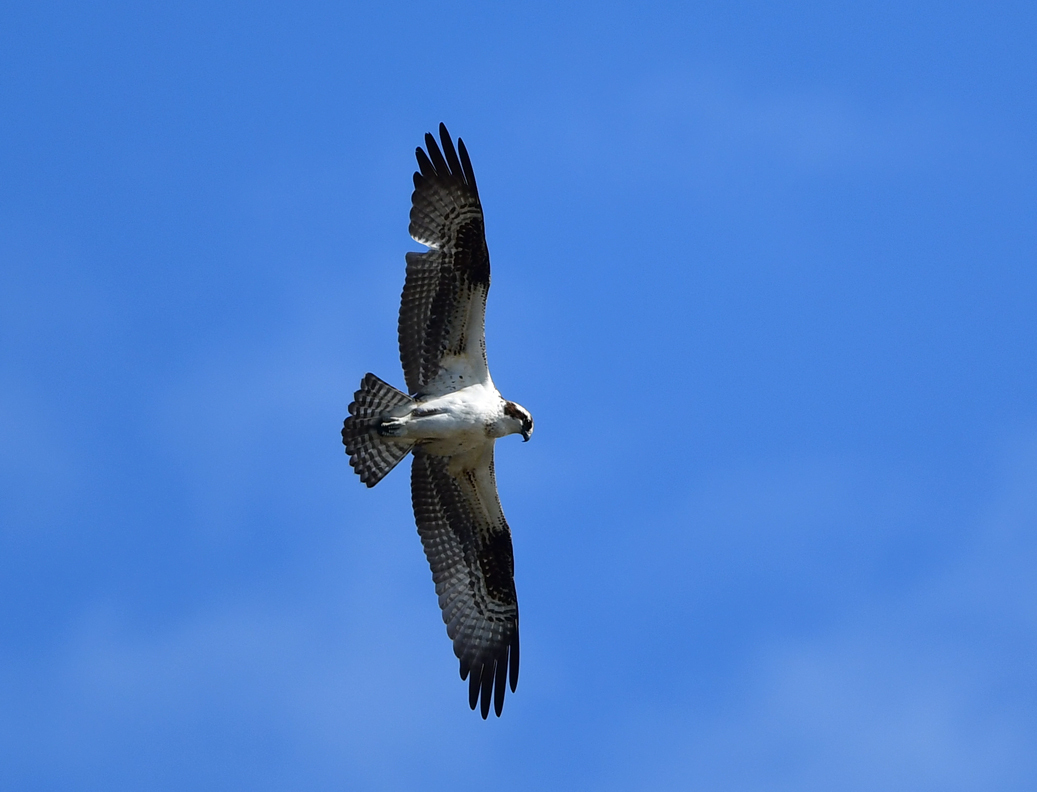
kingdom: Animalia
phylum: Chordata
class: Aves
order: Accipitriformes
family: Pandionidae
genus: Pandion
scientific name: Pandion haliaetus
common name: Osprey
